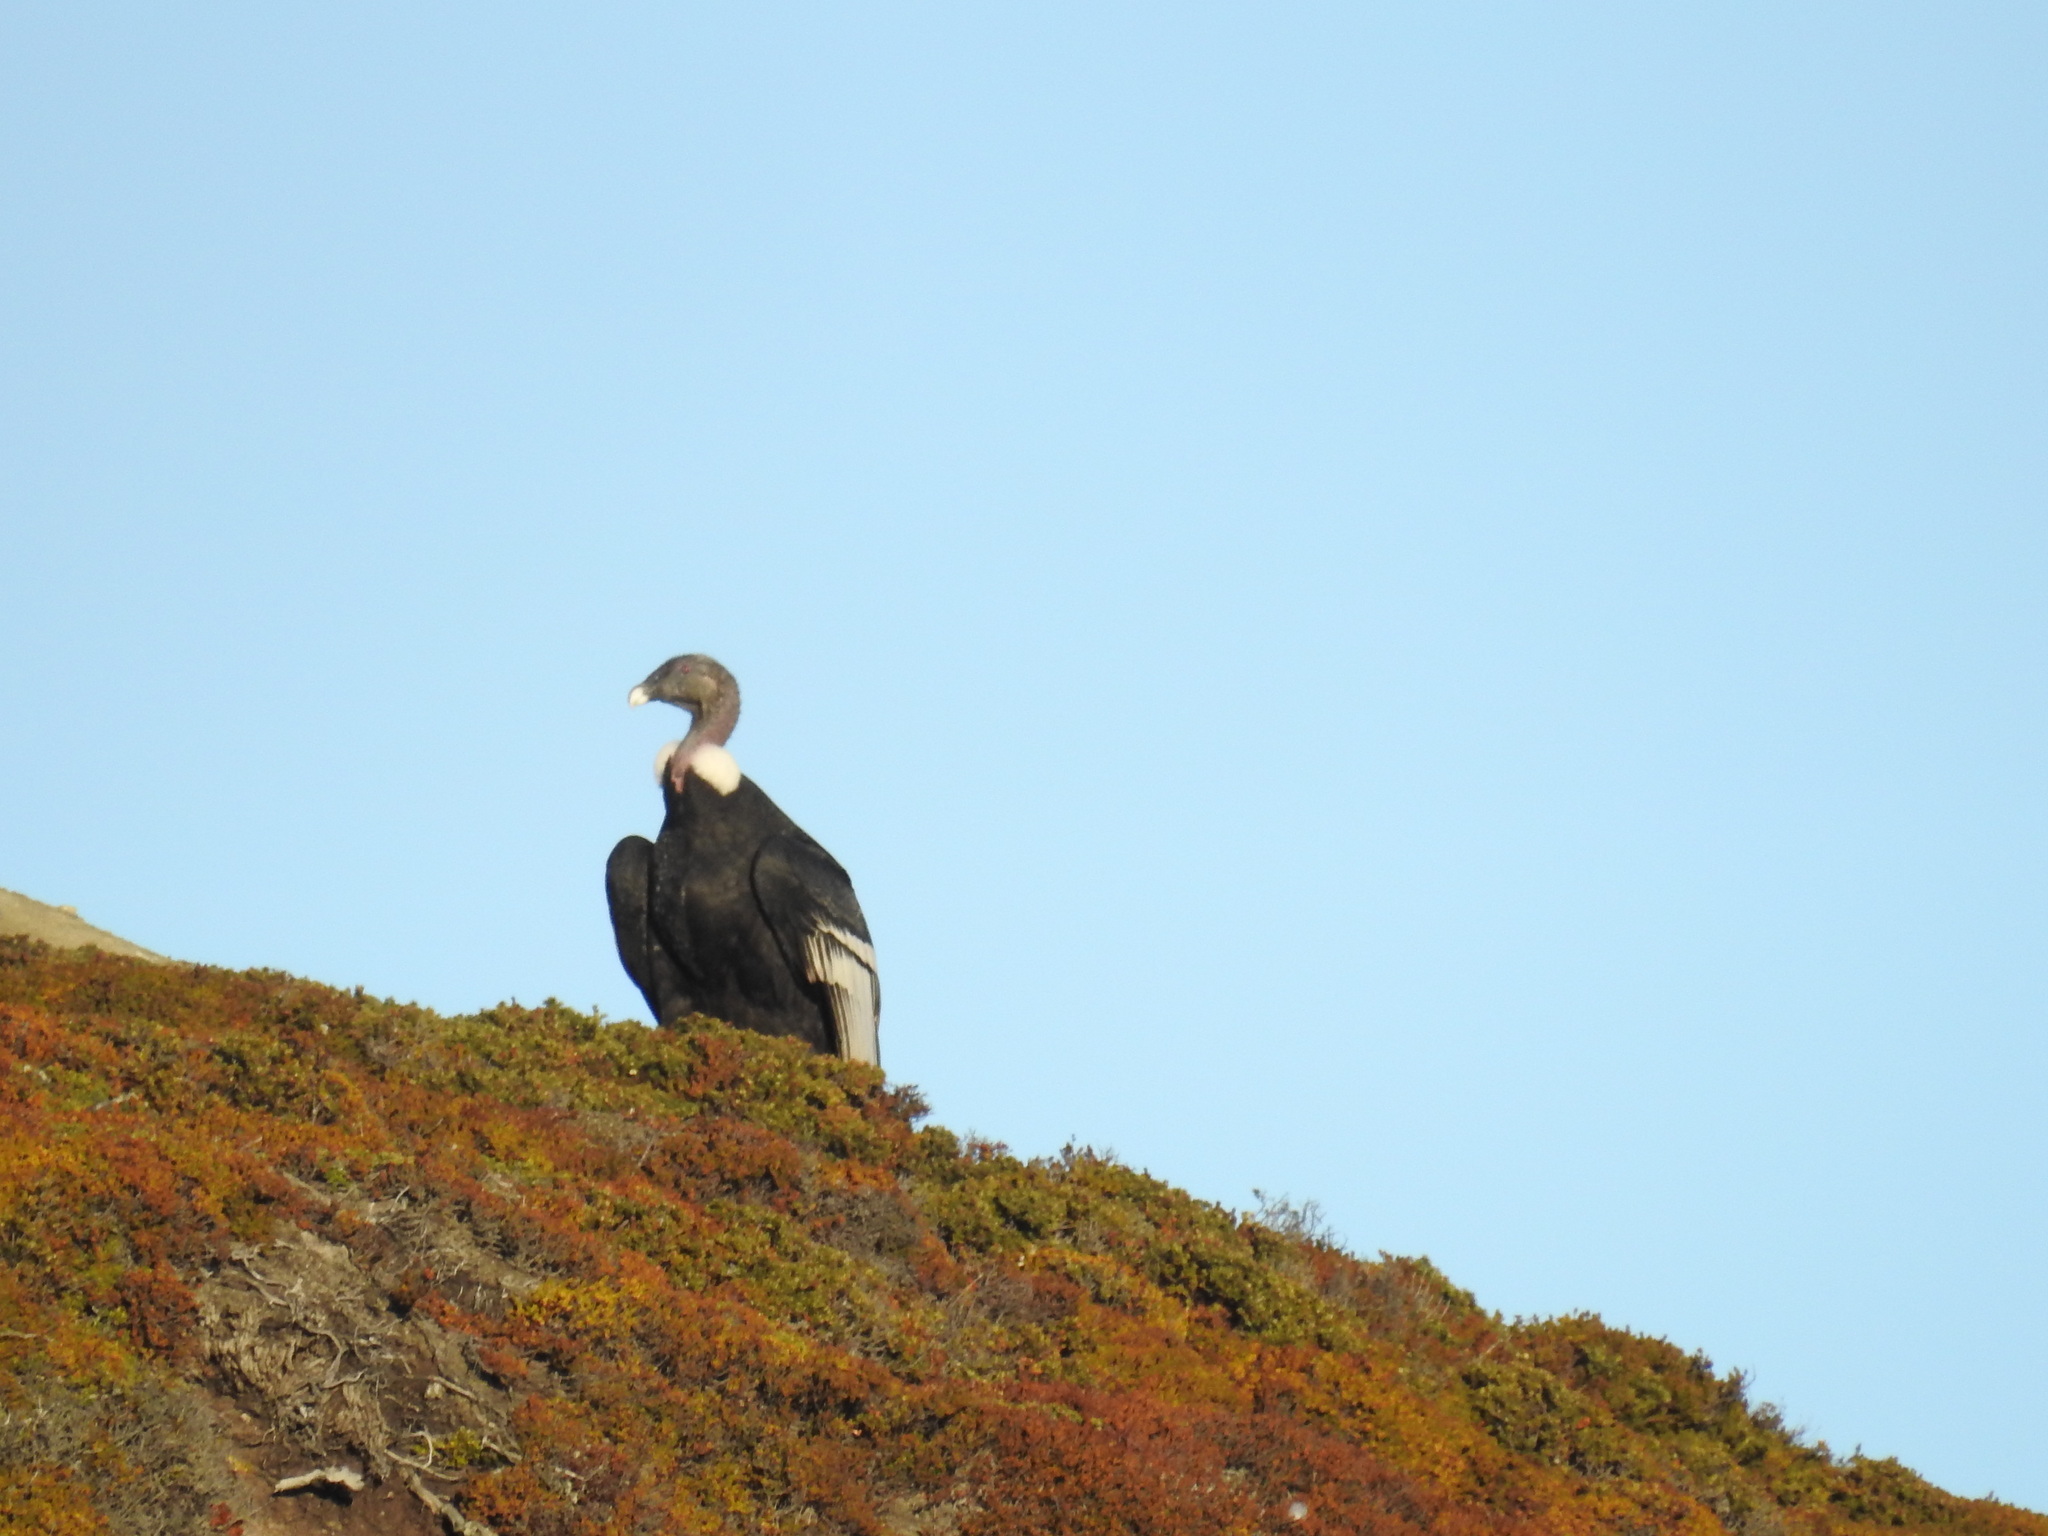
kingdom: Animalia
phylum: Chordata
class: Aves
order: Accipitriformes
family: Cathartidae
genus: Vultur
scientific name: Vultur gryphus
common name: Andean condor
